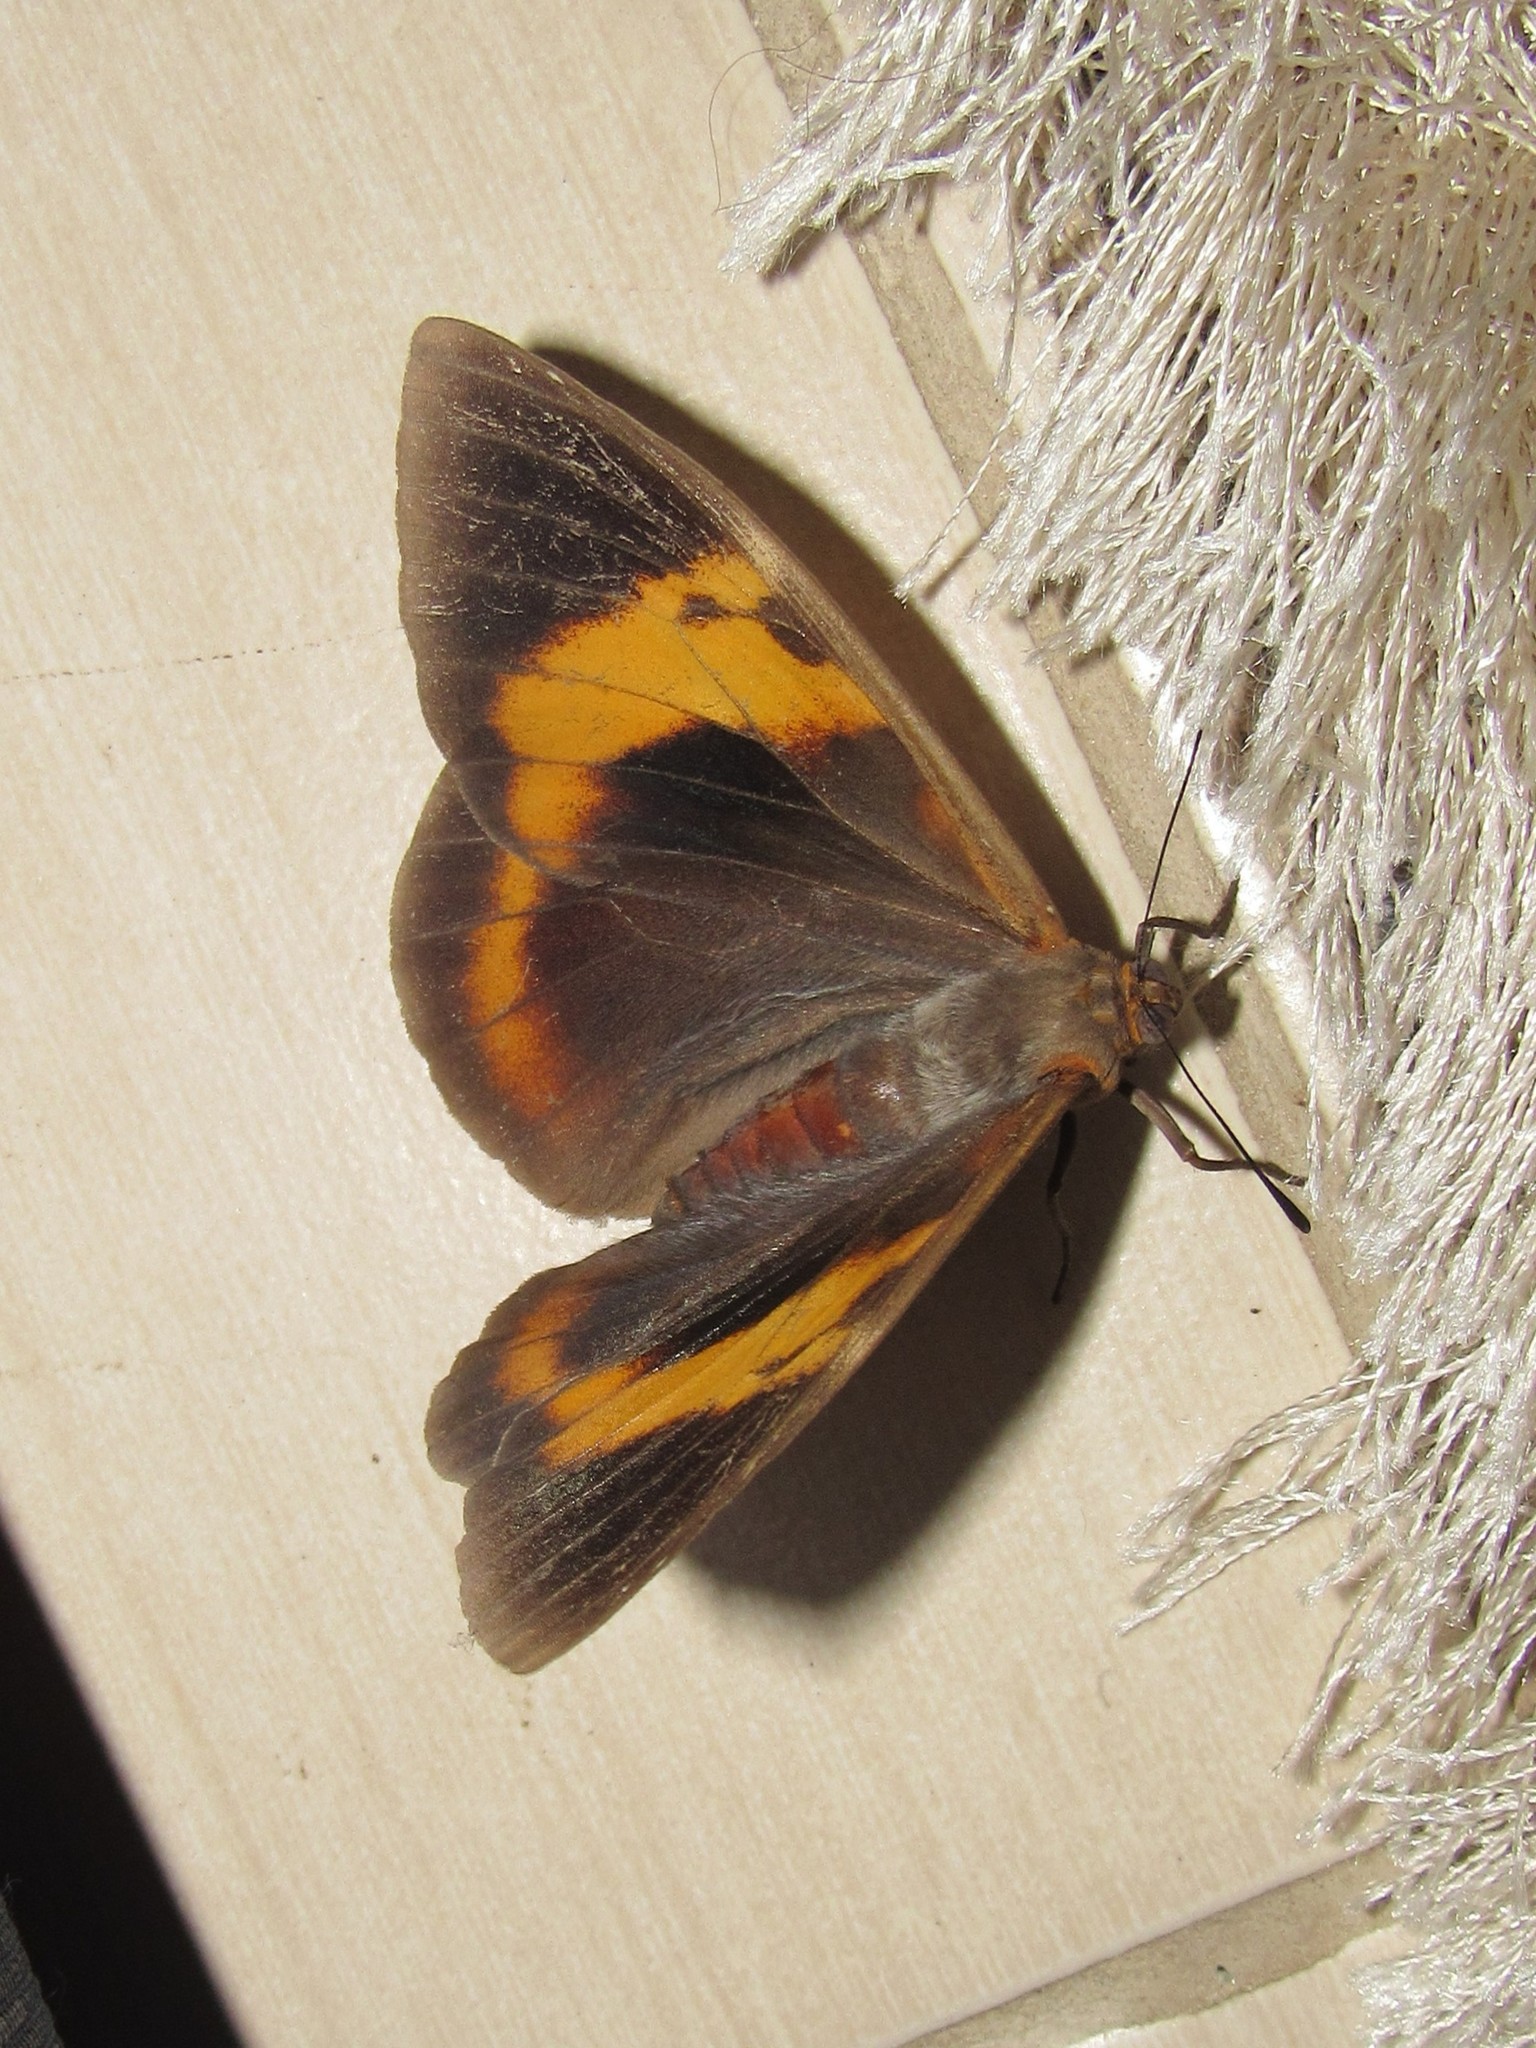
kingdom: Animalia
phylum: Arthropoda
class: Insecta
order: Lepidoptera
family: Nymphalidae
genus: Brassolis
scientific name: Brassolis sophorae
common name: Coconut caterpillar
